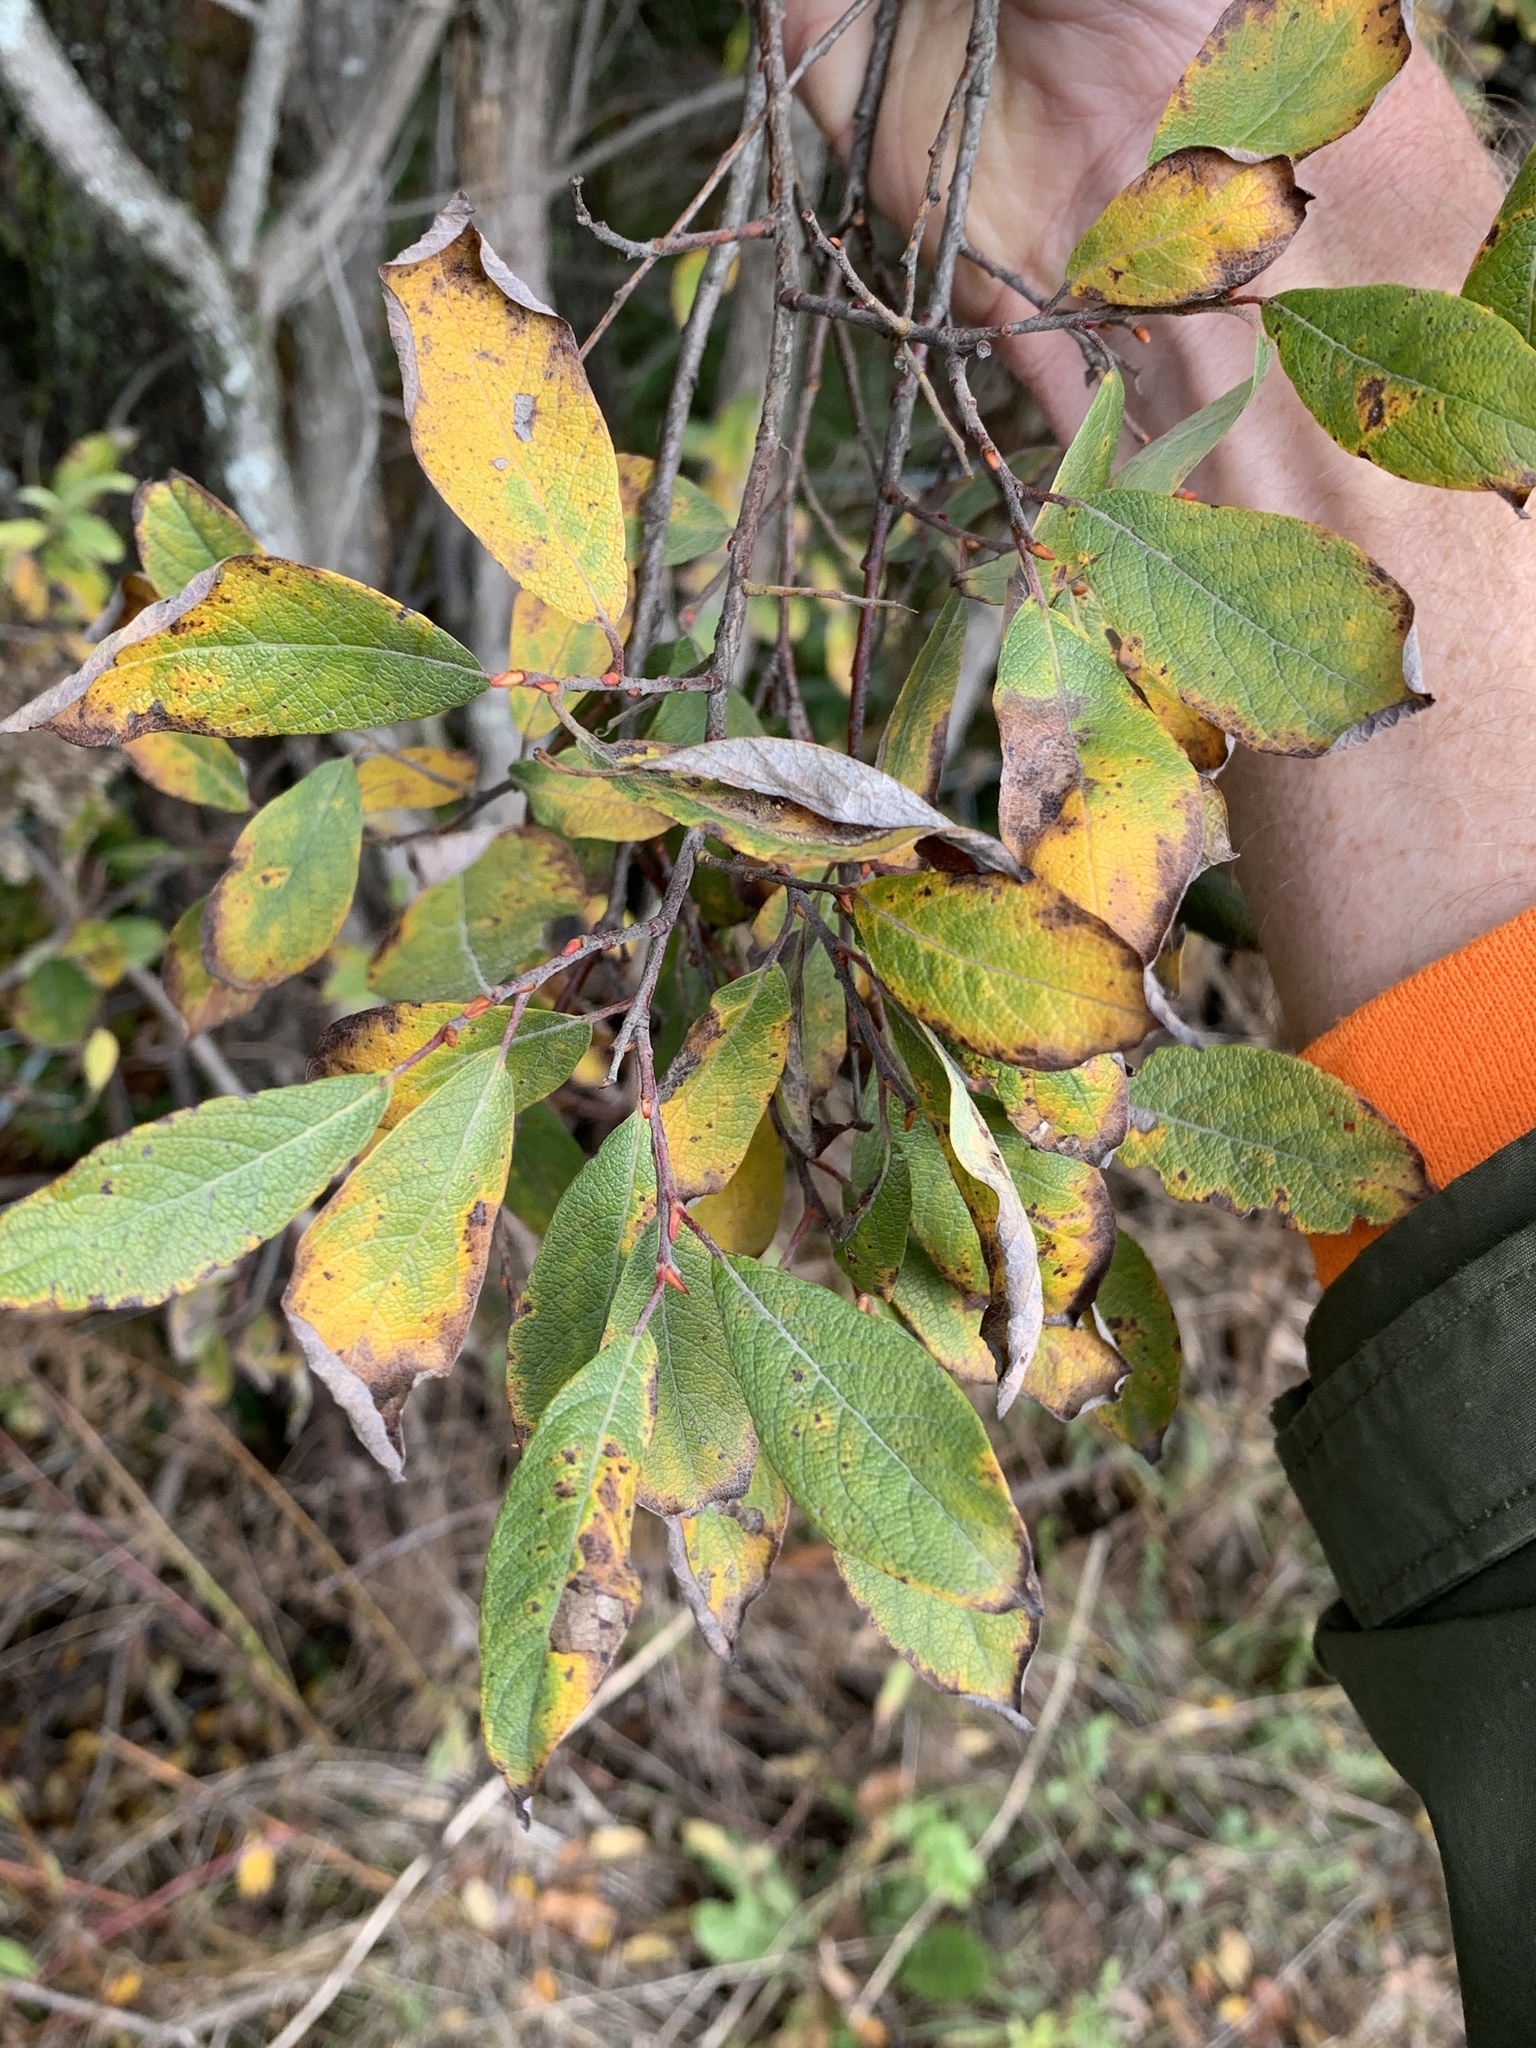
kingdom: Plantae
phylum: Tracheophyta
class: Magnoliopsida
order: Malpighiales
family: Salicaceae
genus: Salix
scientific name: Salix bebbiana
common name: Bebb's willow
